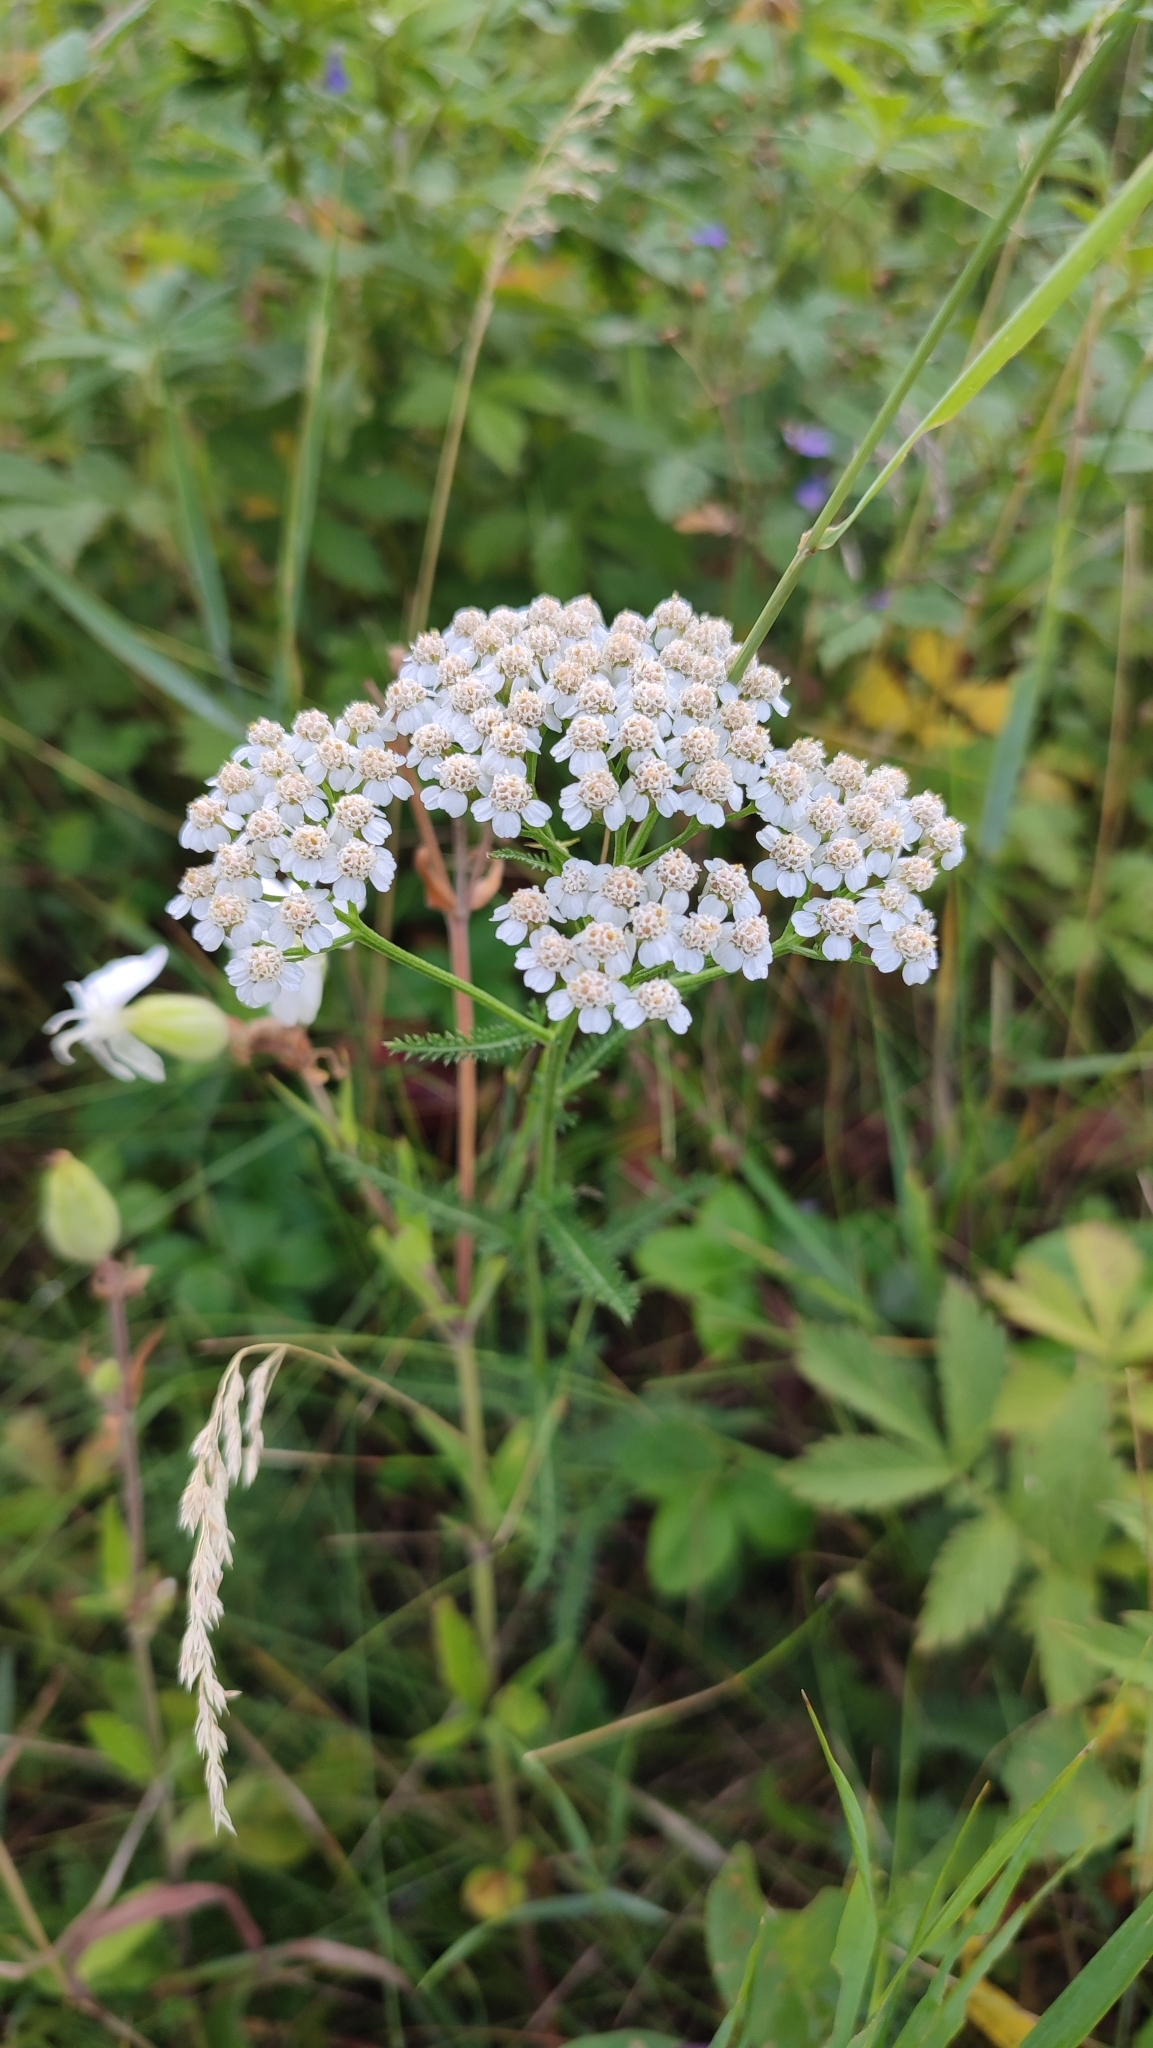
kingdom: Plantae
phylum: Tracheophyta
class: Magnoliopsida
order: Asterales
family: Asteraceae
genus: Achillea
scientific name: Achillea asiatica
